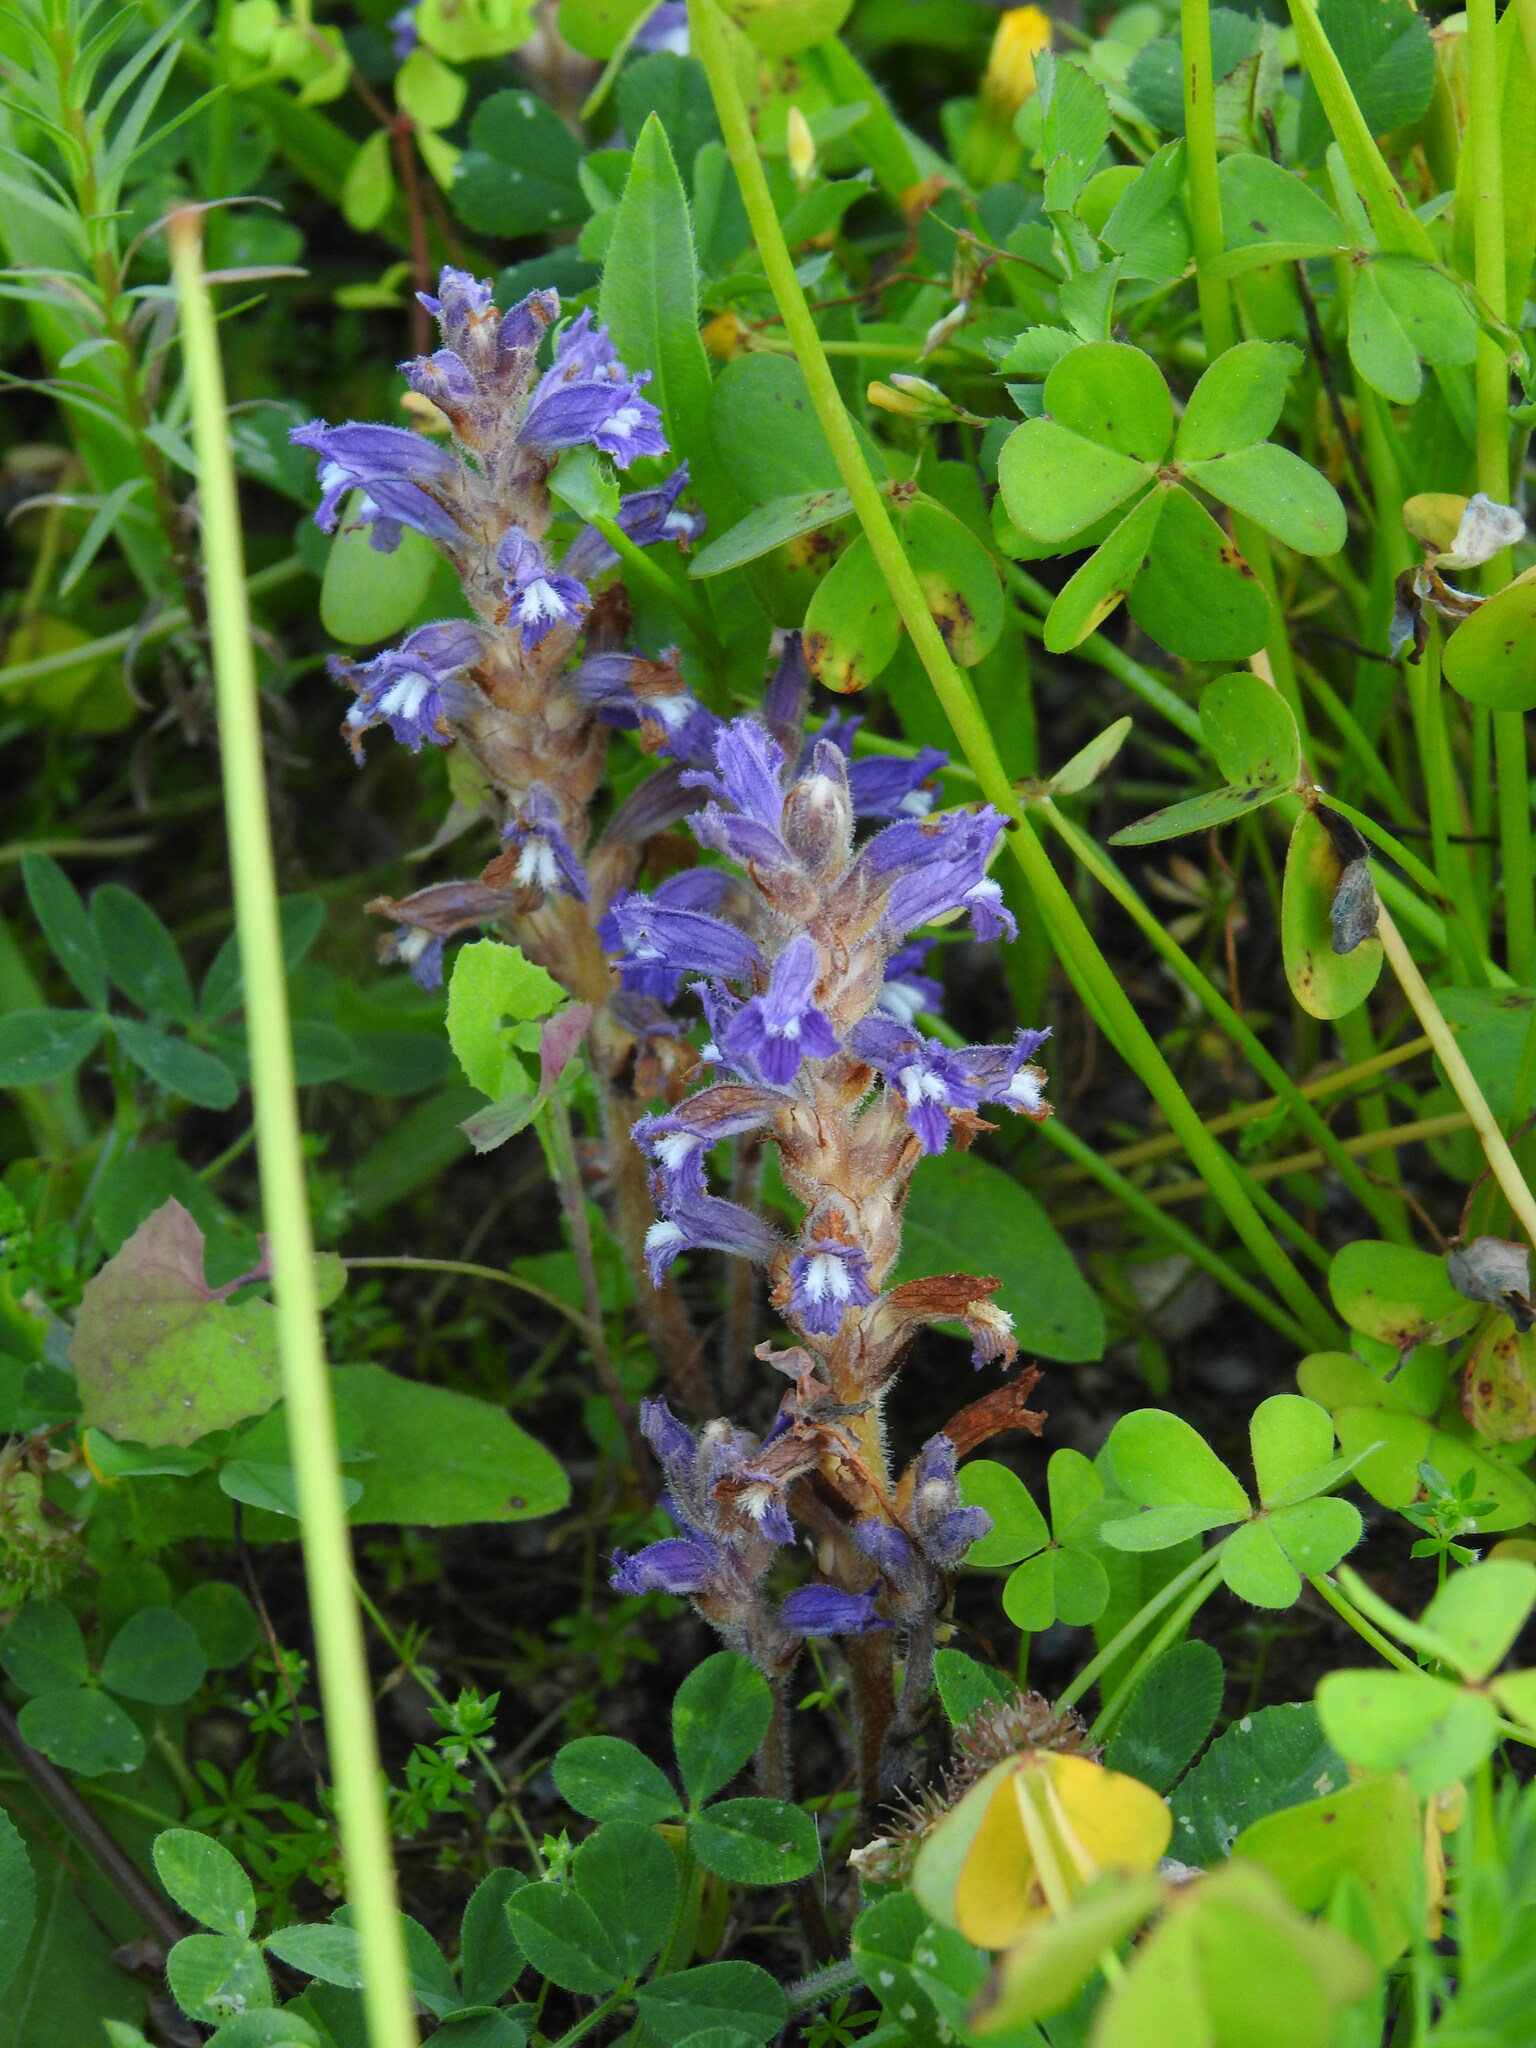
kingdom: Plantae
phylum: Tracheophyta
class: Magnoliopsida
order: Lamiales
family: Orobanchaceae
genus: Phelipanche
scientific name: Phelipanche mutelii
